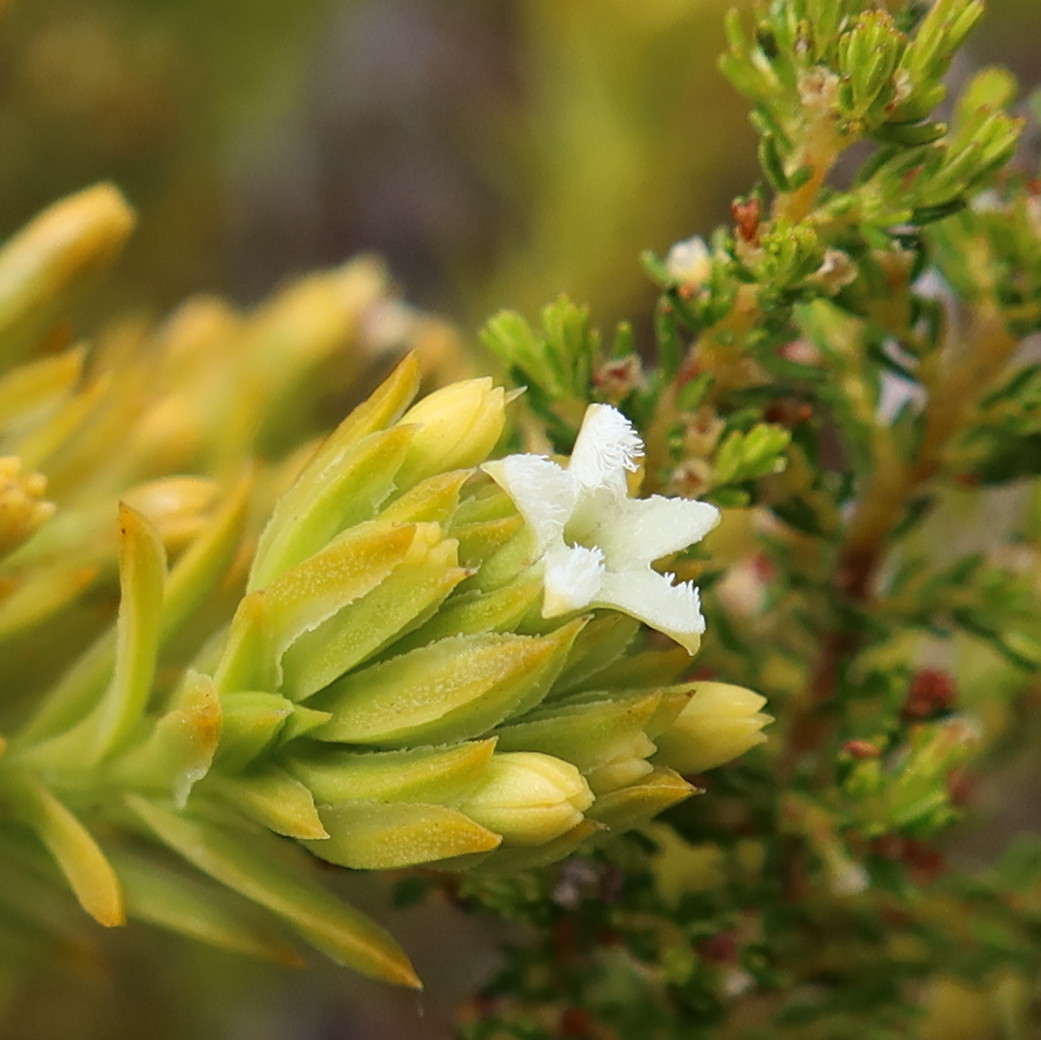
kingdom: Plantae
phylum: Tracheophyta
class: Magnoliopsida
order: Santalales
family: Thesiaceae
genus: Thesium
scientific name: Thesium viridifolium
